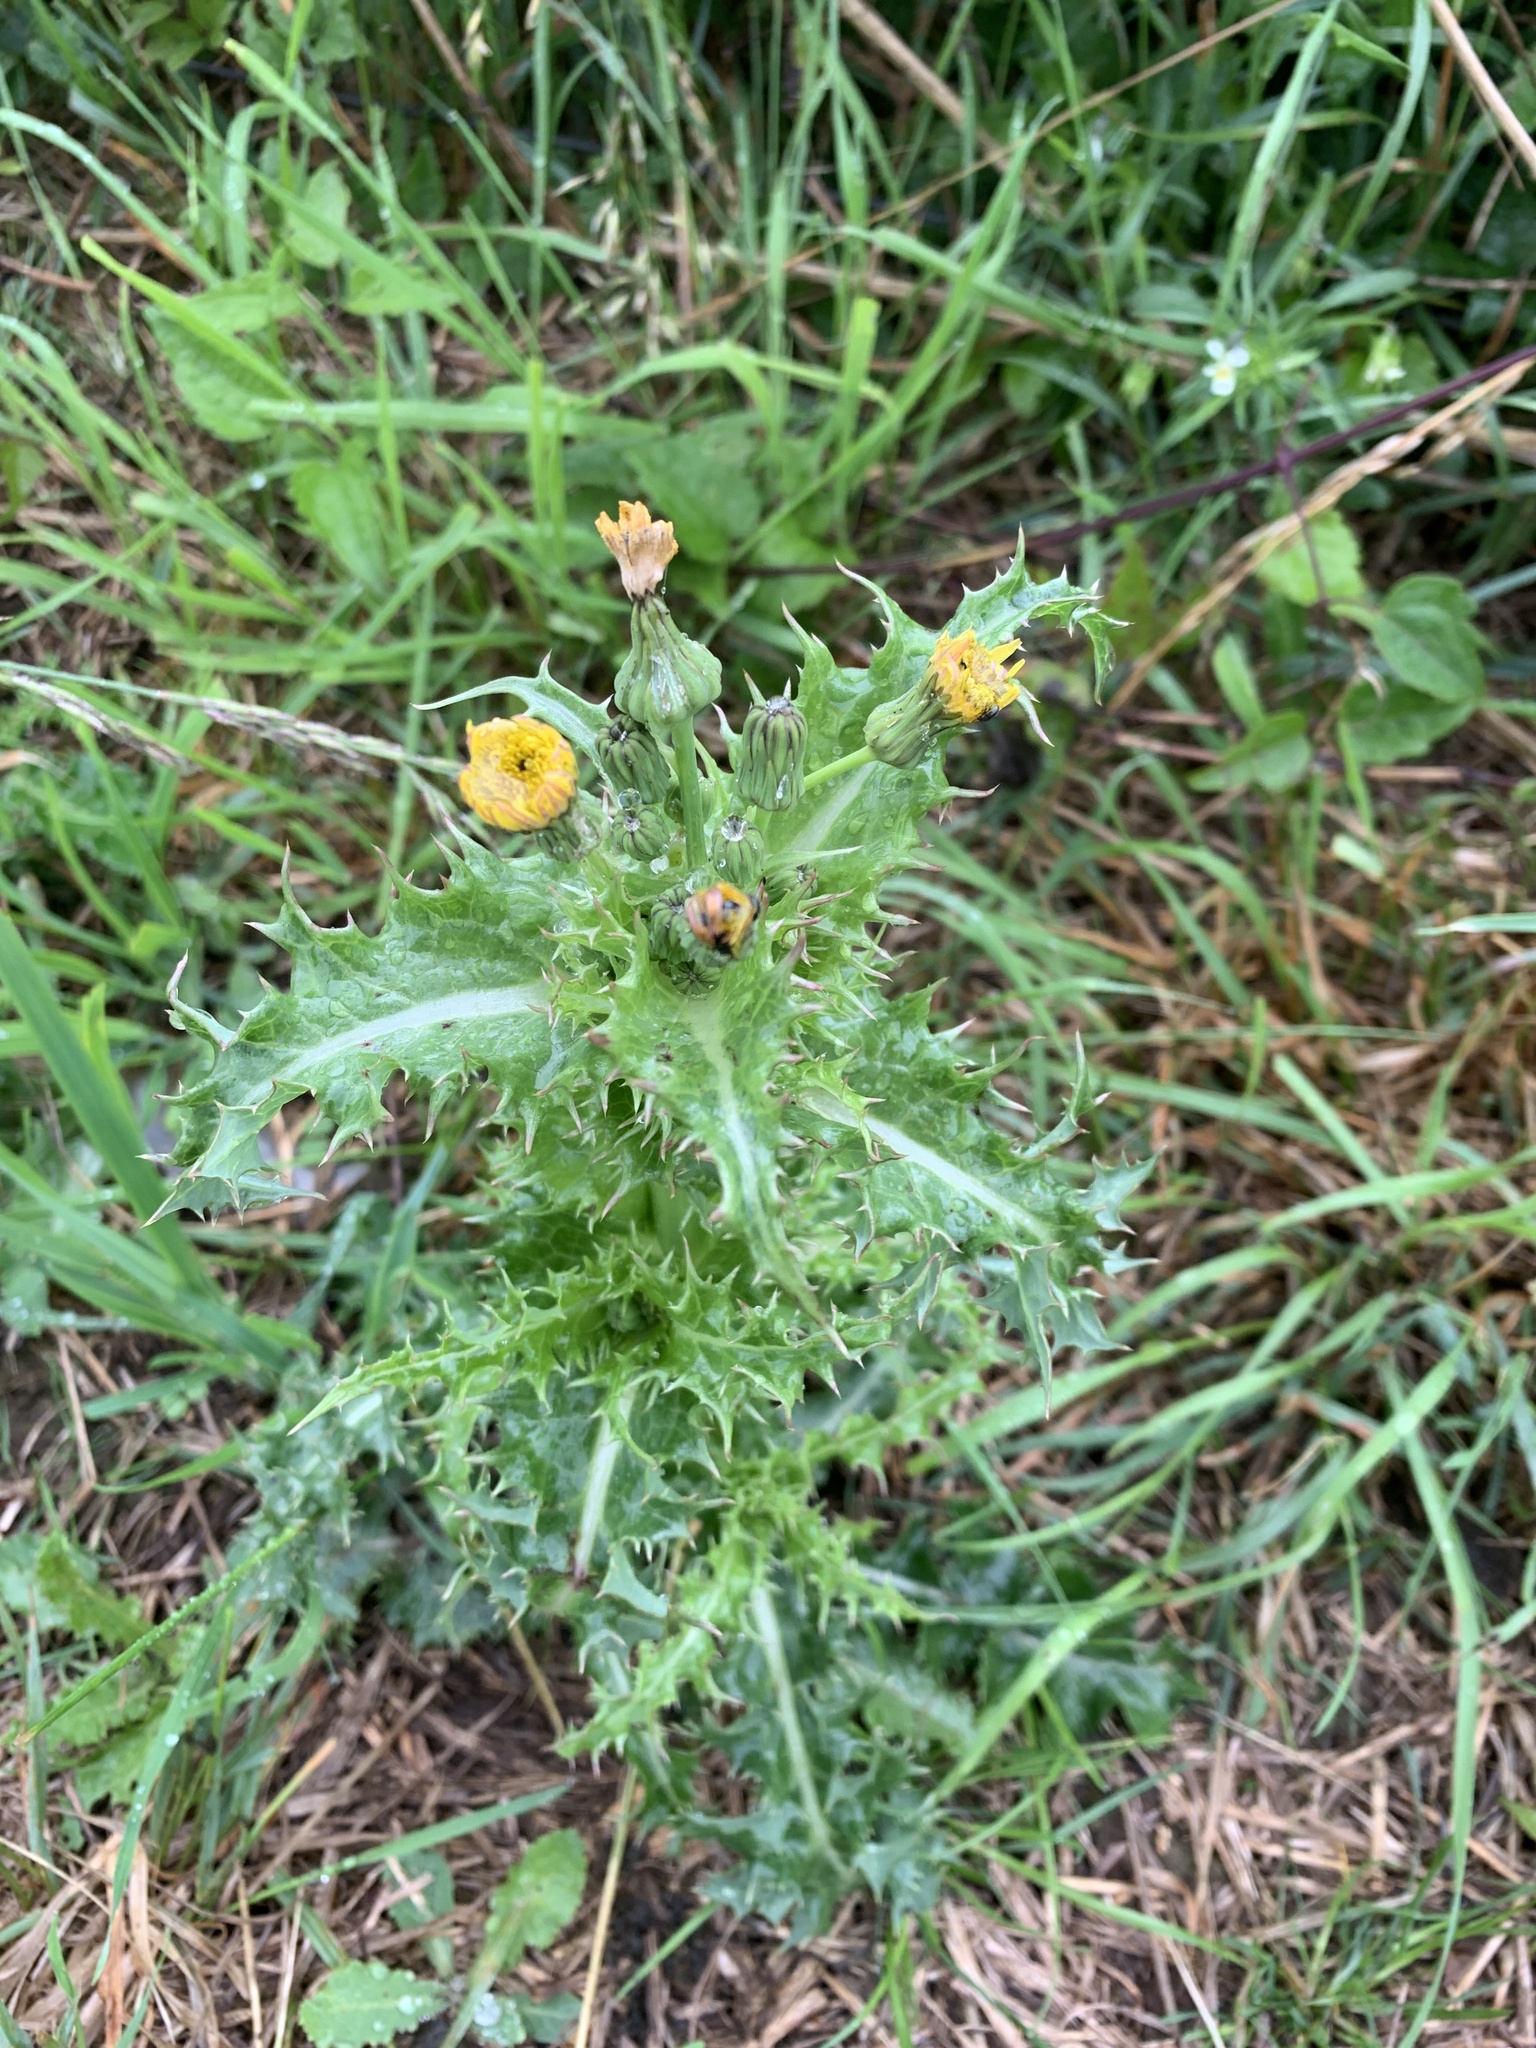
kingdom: Plantae
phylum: Tracheophyta
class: Magnoliopsida
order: Asterales
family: Asteraceae
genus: Sonchus
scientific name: Sonchus asper
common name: Prickly sow-thistle
